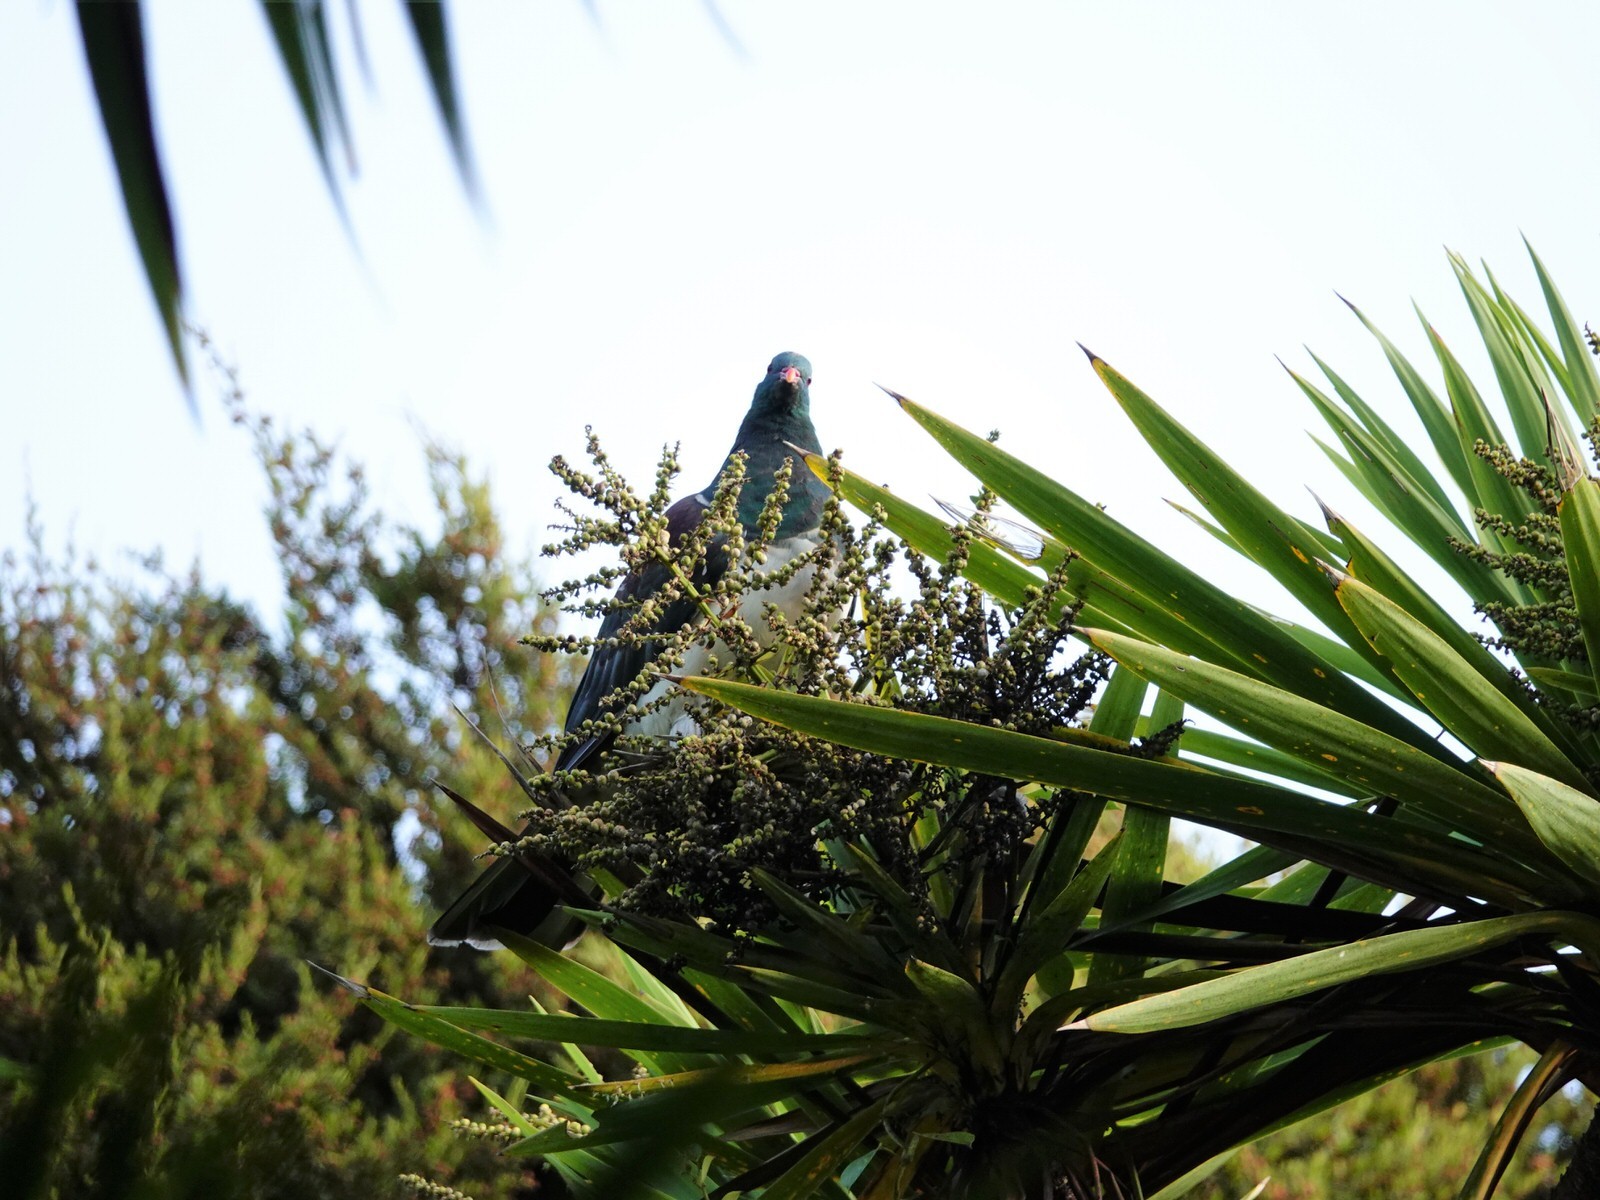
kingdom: Animalia
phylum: Chordata
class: Aves
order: Columbiformes
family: Columbidae
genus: Hemiphaga
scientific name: Hemiphaga novaeseelandiae
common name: New zealand pigeon
